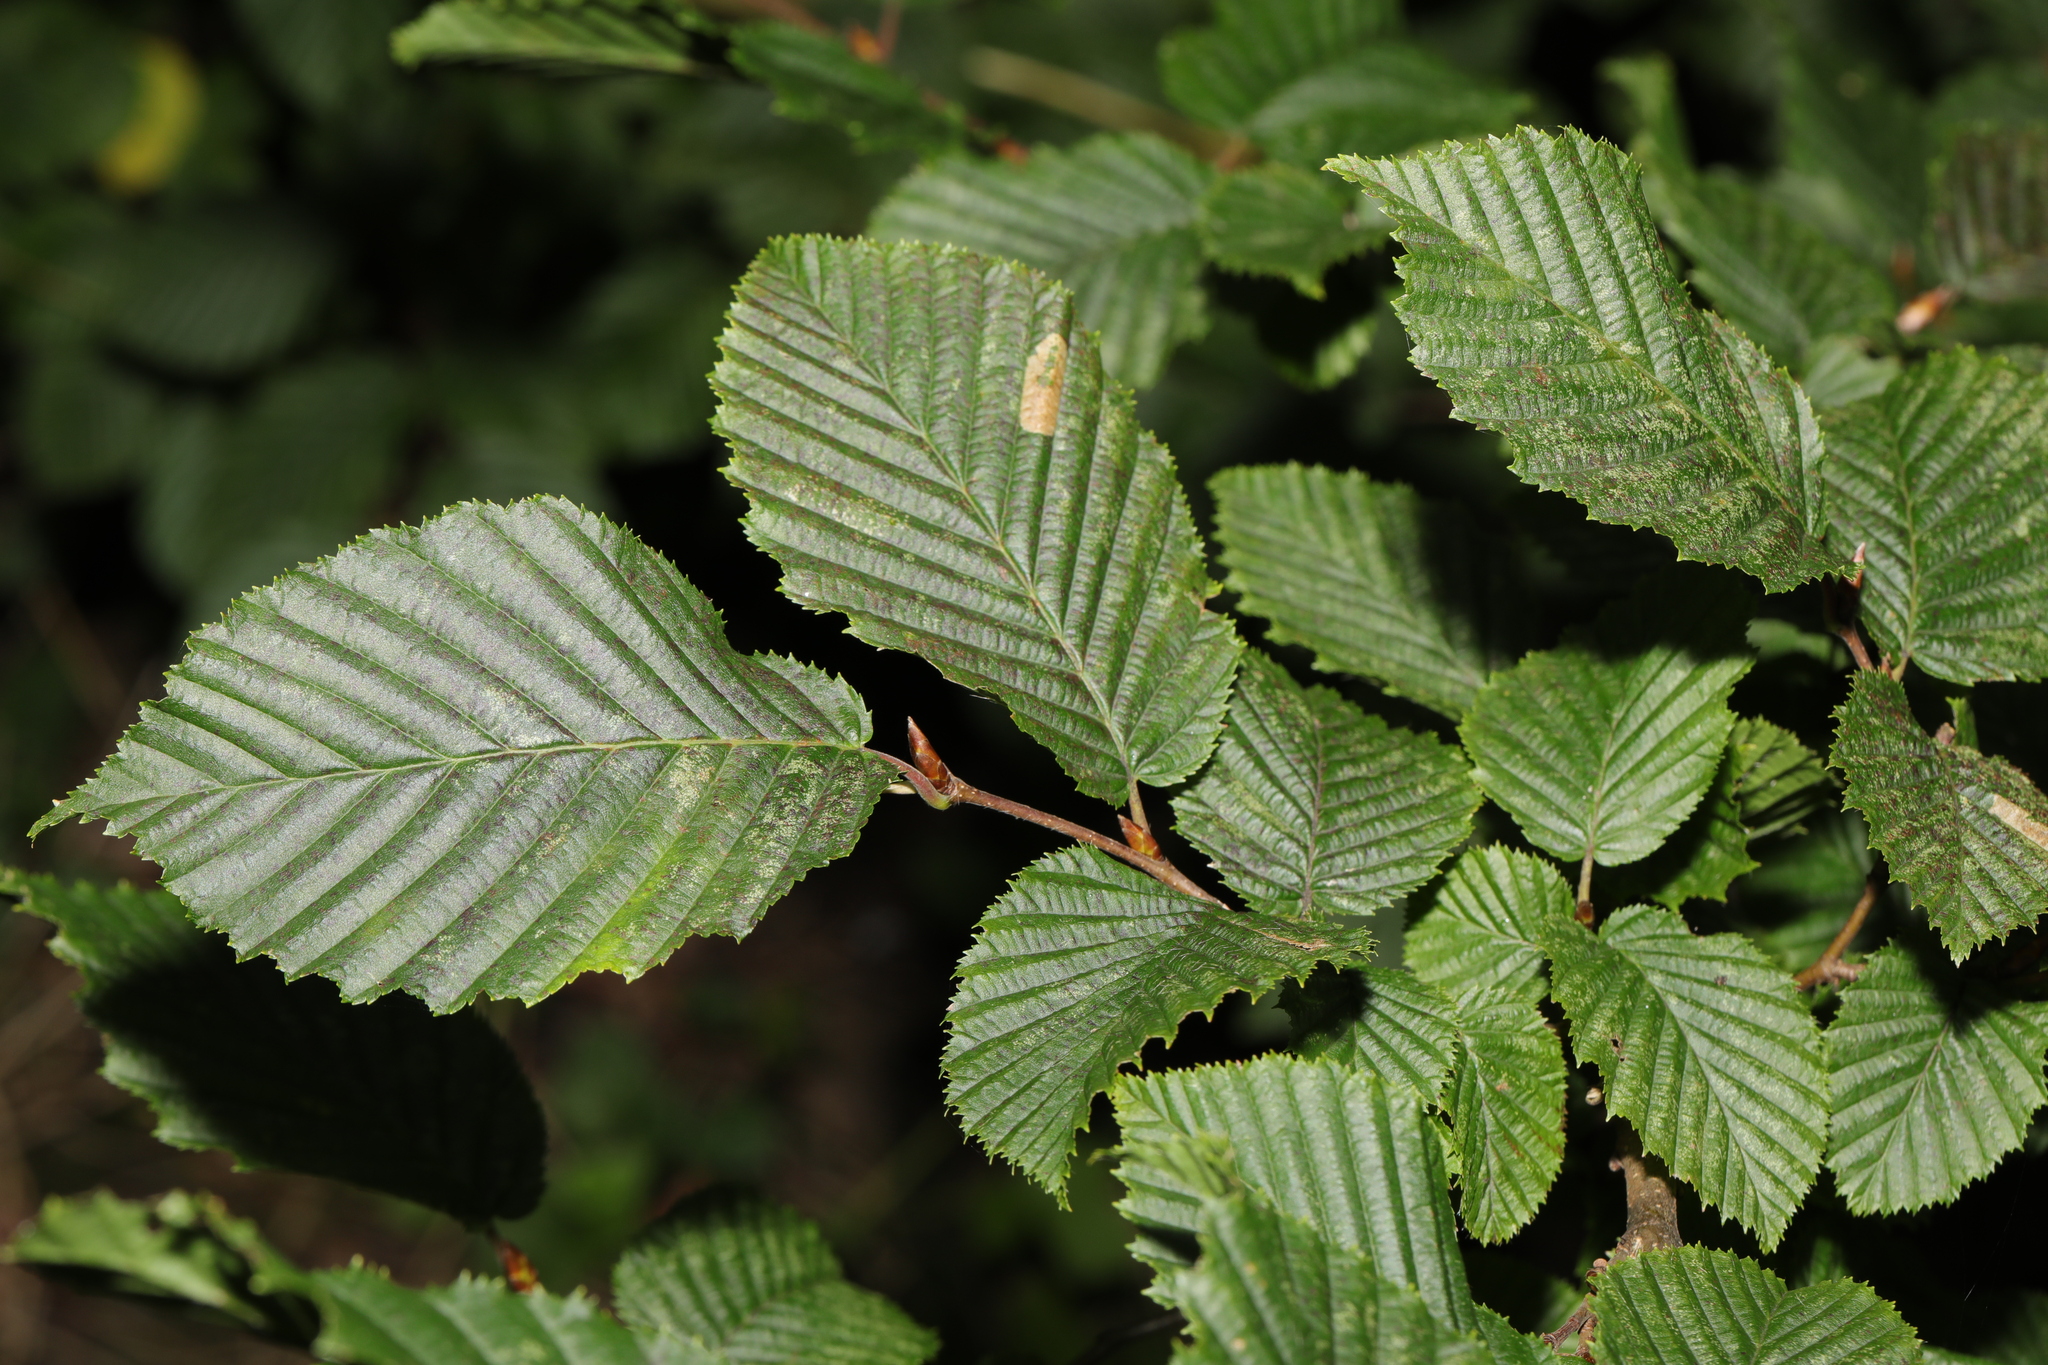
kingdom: Plantae
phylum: Tracheophyta
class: Magnoliopsida
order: Fagales
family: Betulaceae
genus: Carpinus
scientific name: Carpinus betulus
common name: Hornbeam
